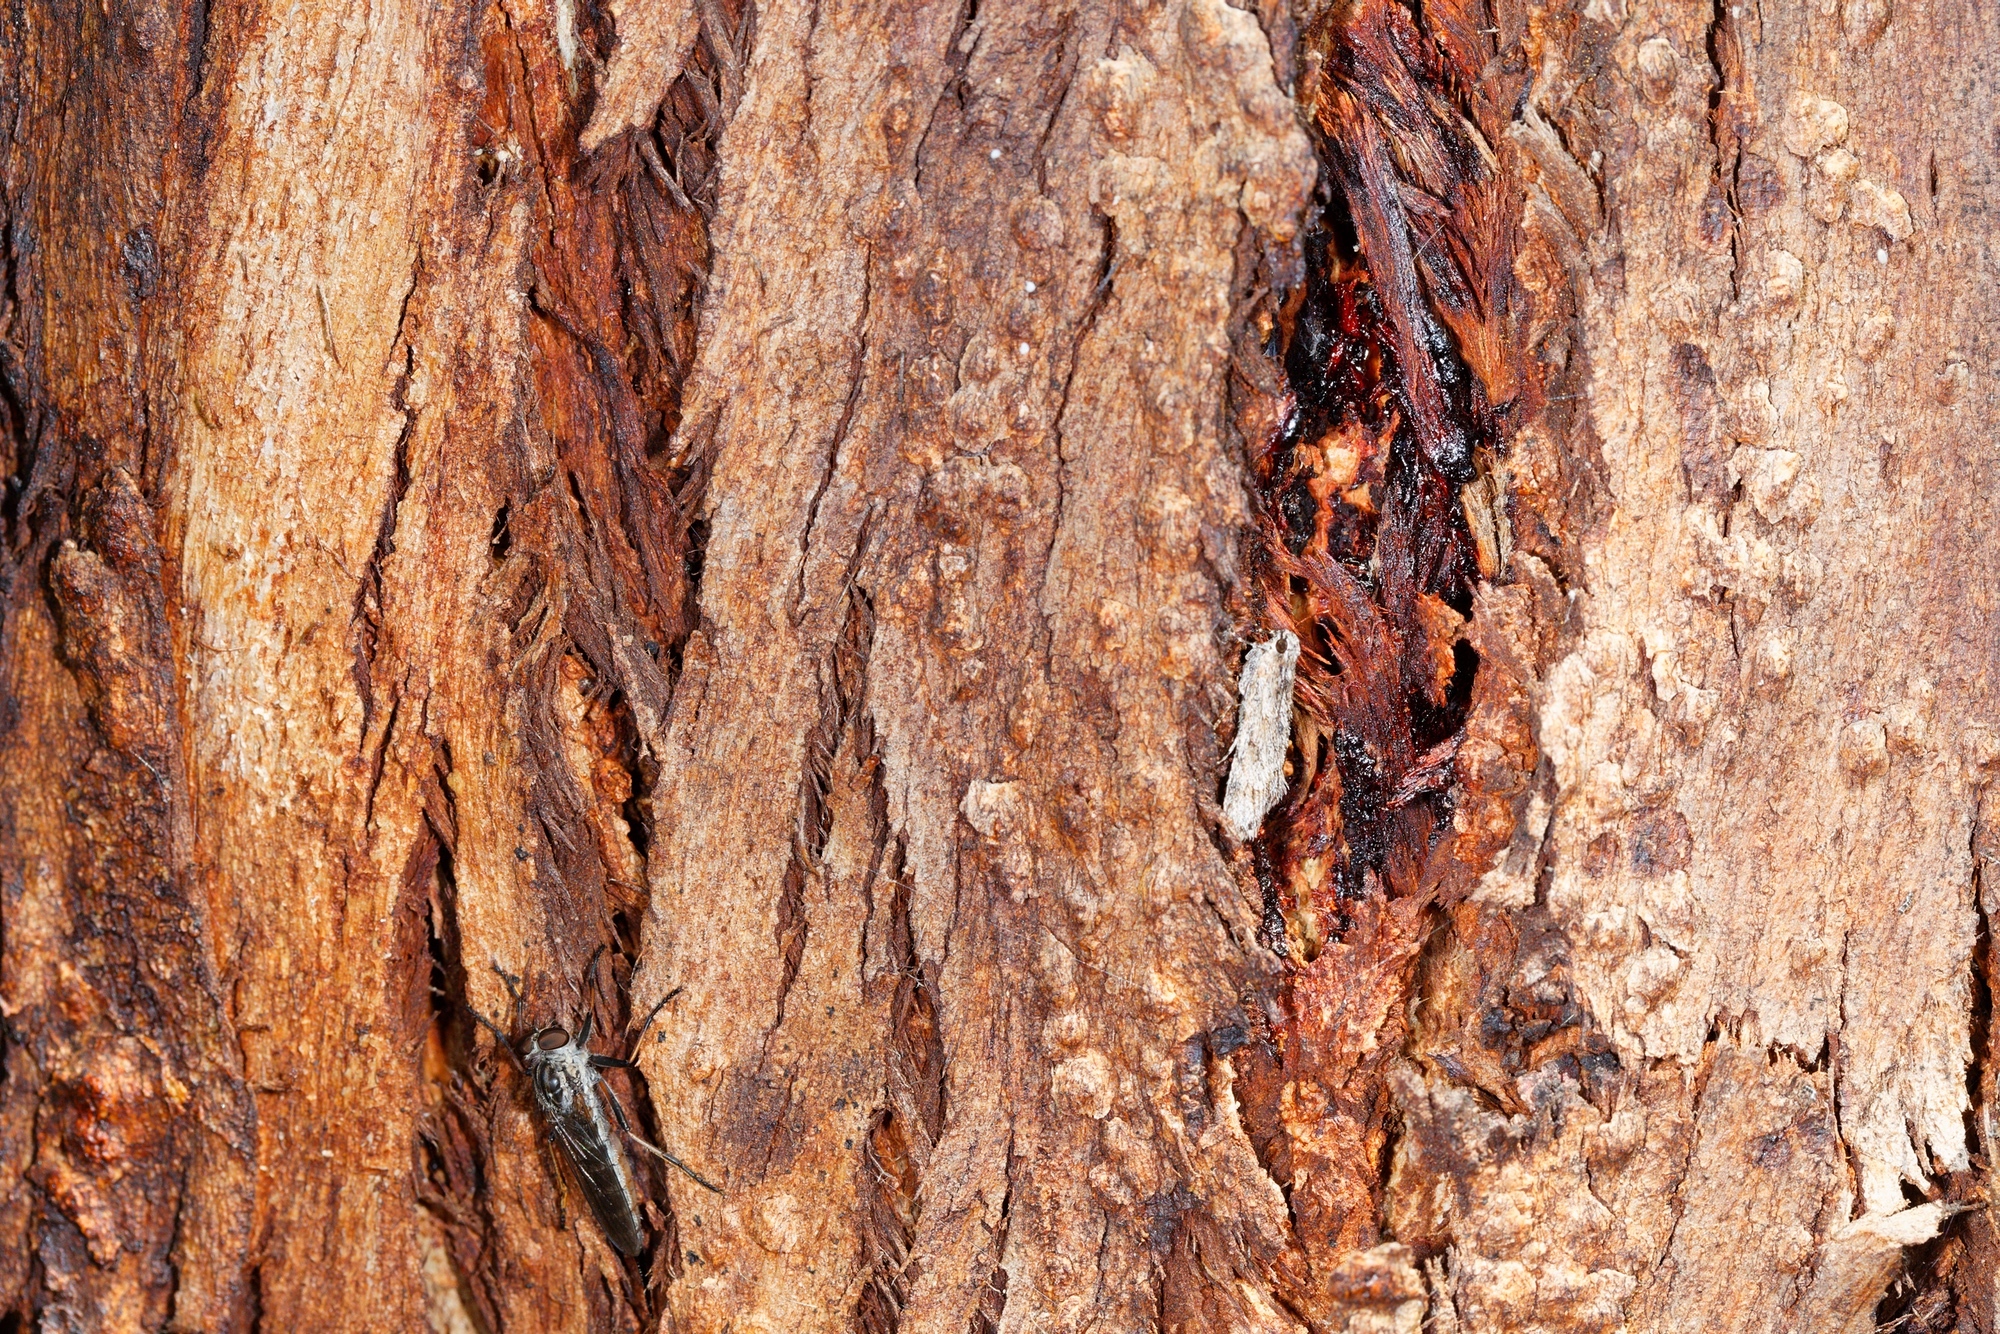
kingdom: Animalia
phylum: Arthropoda
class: Insecta
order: Lepidoptera
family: Pyralidae
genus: Spectrotrota
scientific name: Spectrotrota fimbrialis
